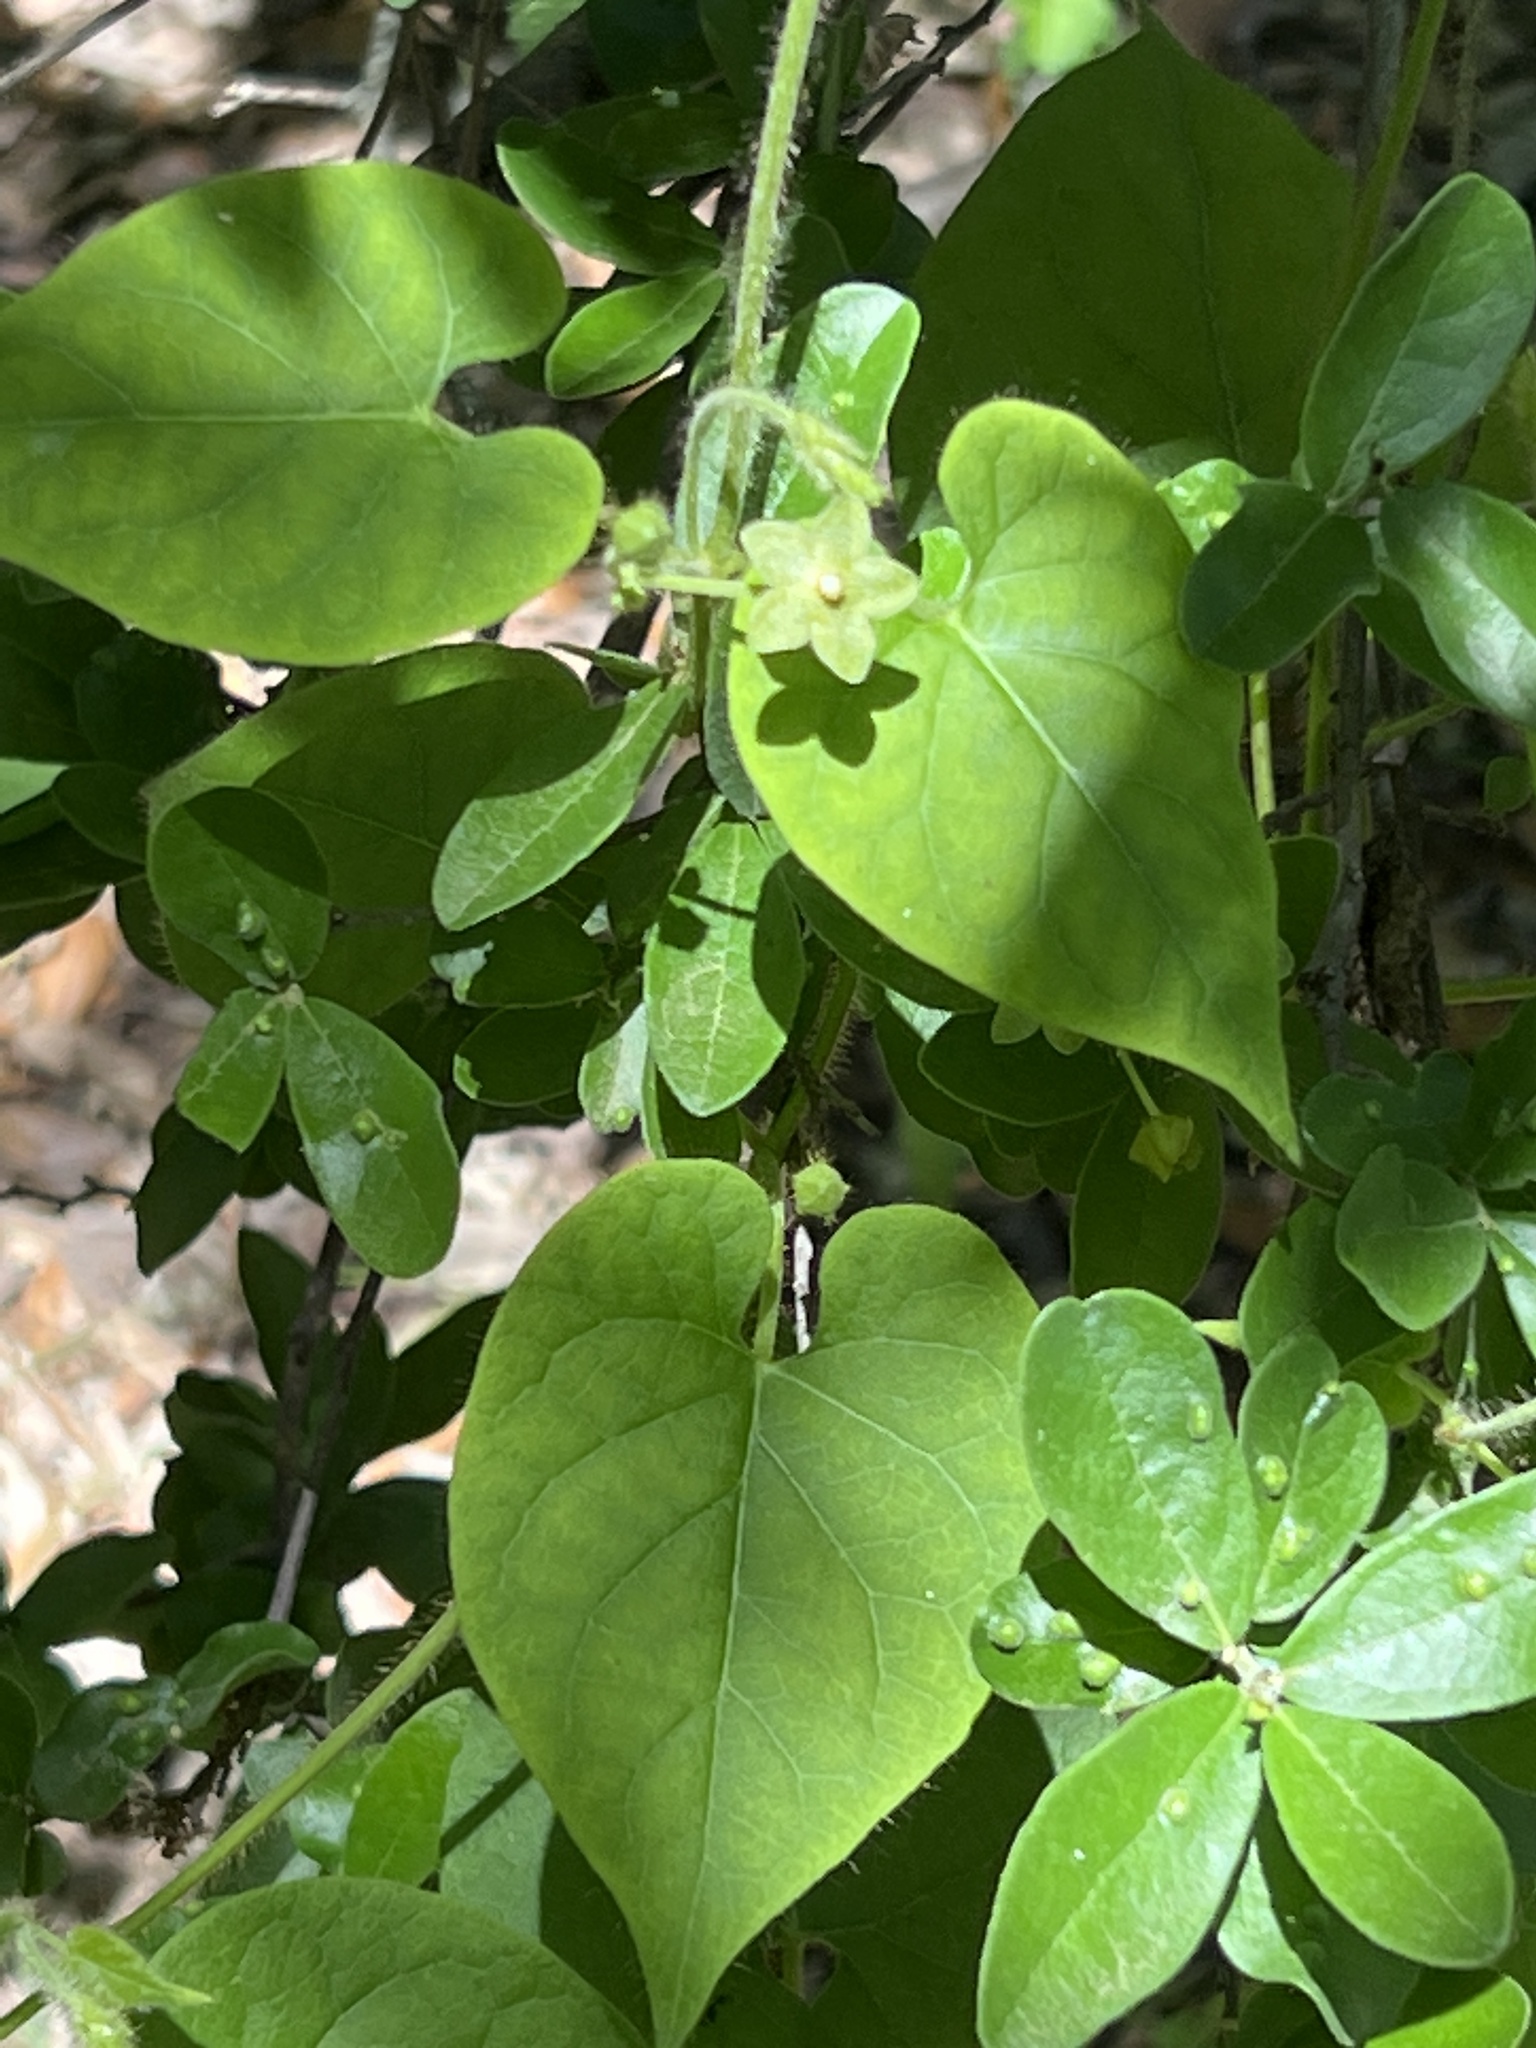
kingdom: Plantae
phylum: Tracheophyta
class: Magnoliopsida
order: Gentianales
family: Apocynaceae
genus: Dictyanthus
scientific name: Dictyanthus reticulatus
